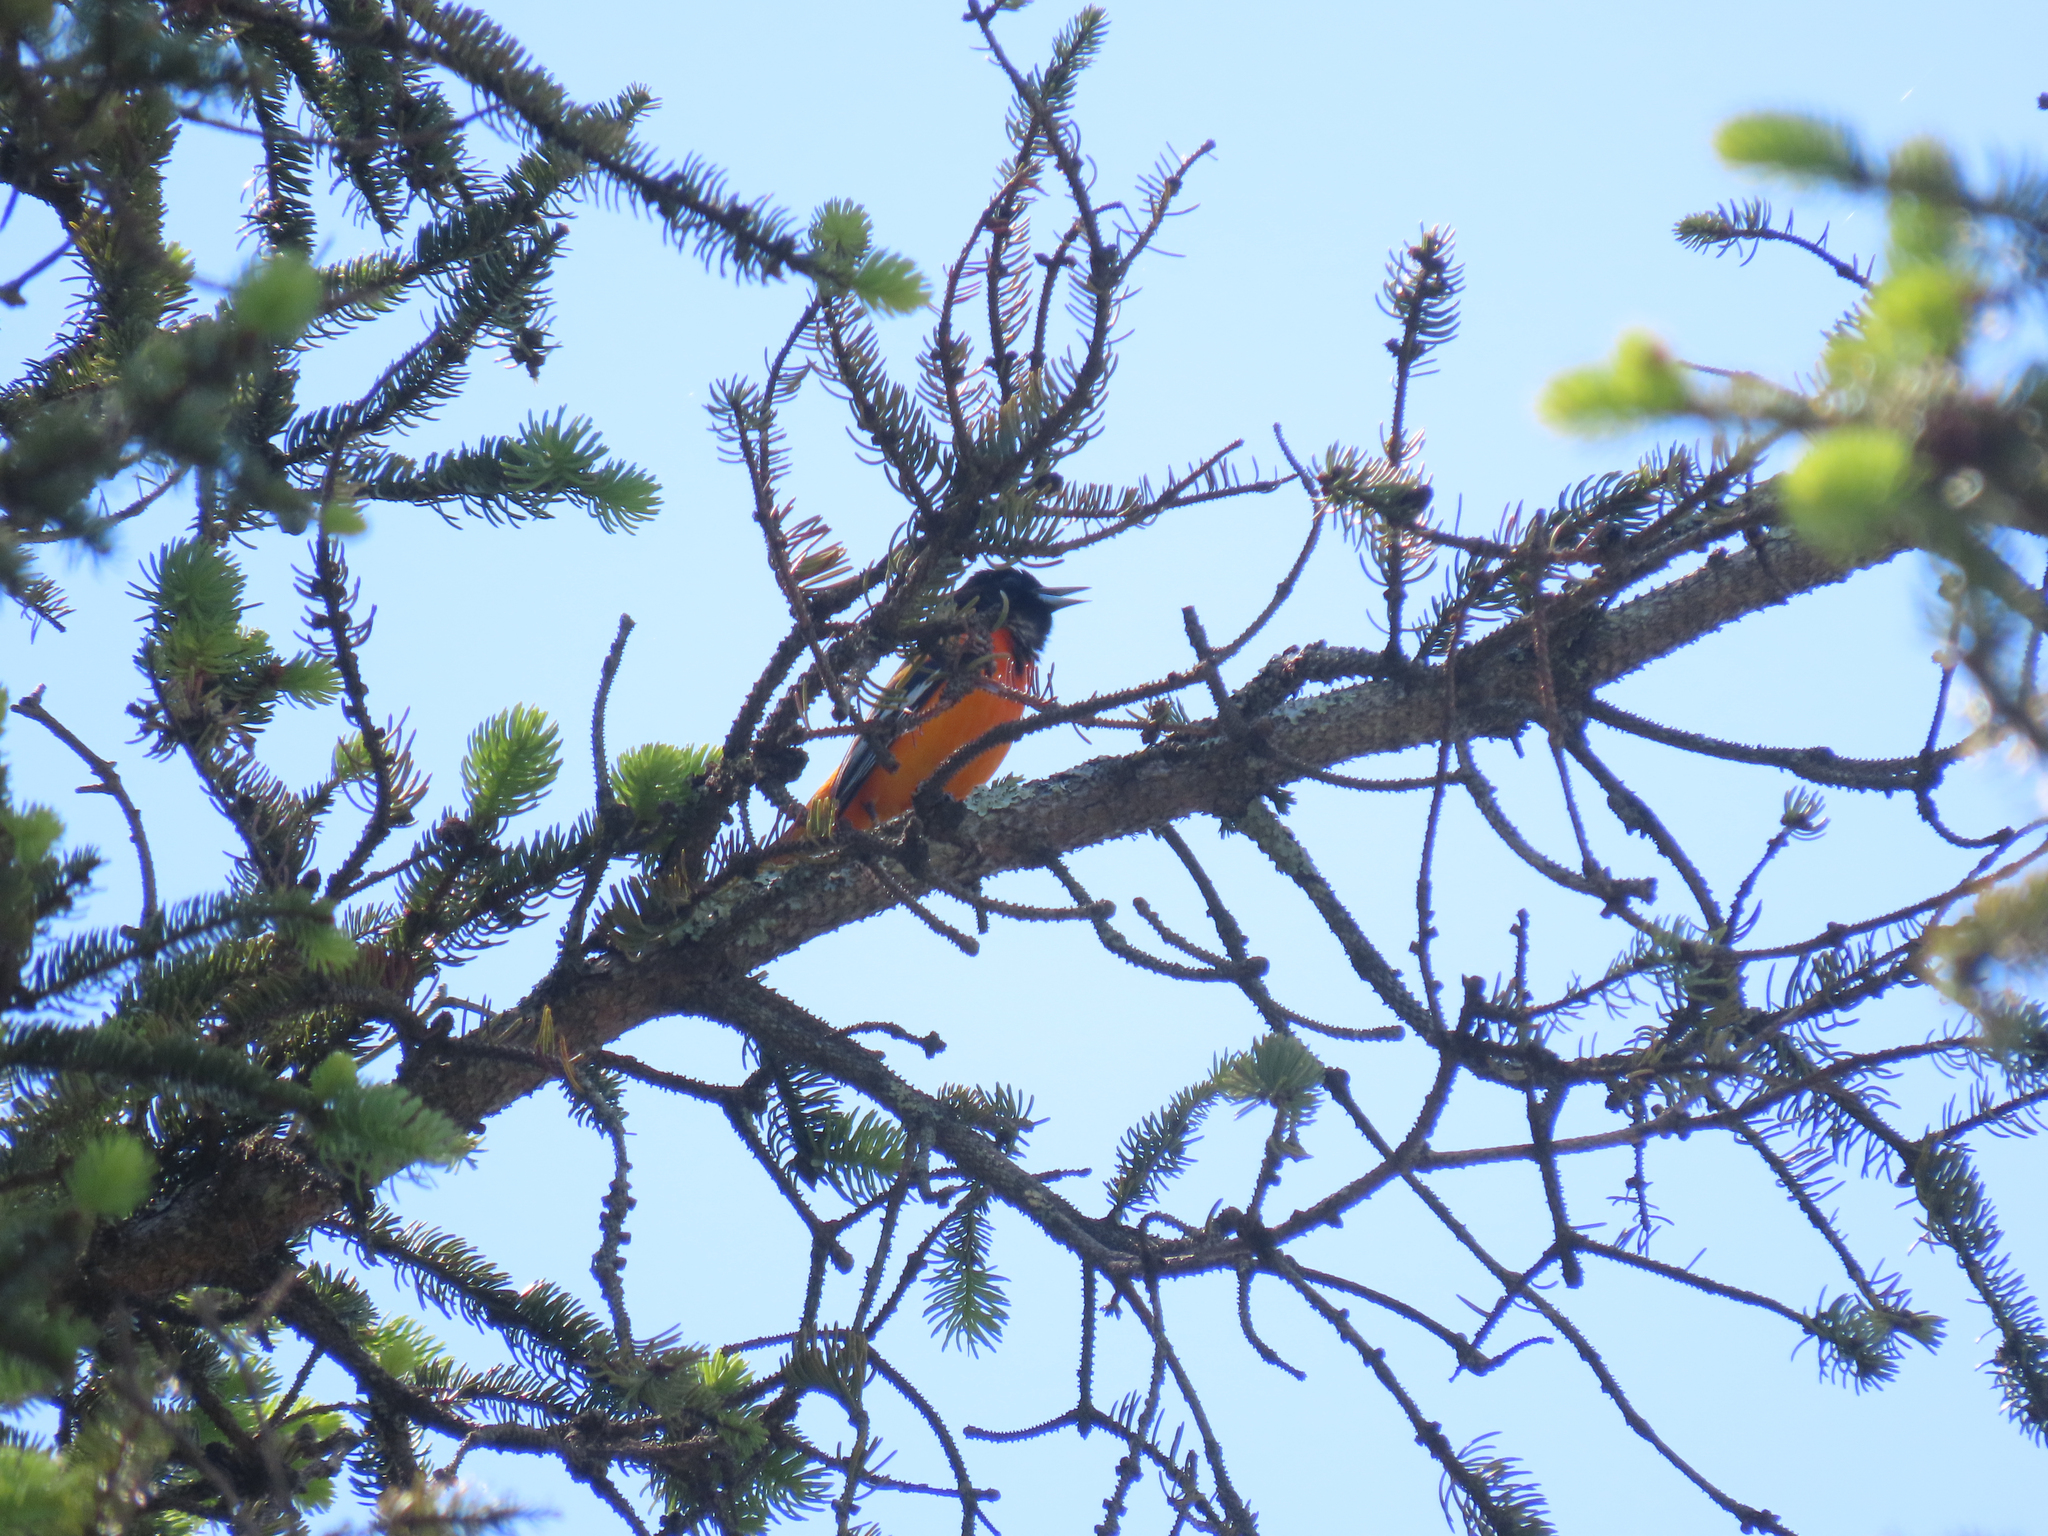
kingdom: Animalia
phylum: Chordata
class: Aves
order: Passeriformes
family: Icteridae
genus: Icterus
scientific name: Icterus galbula
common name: Baltimore oriole
